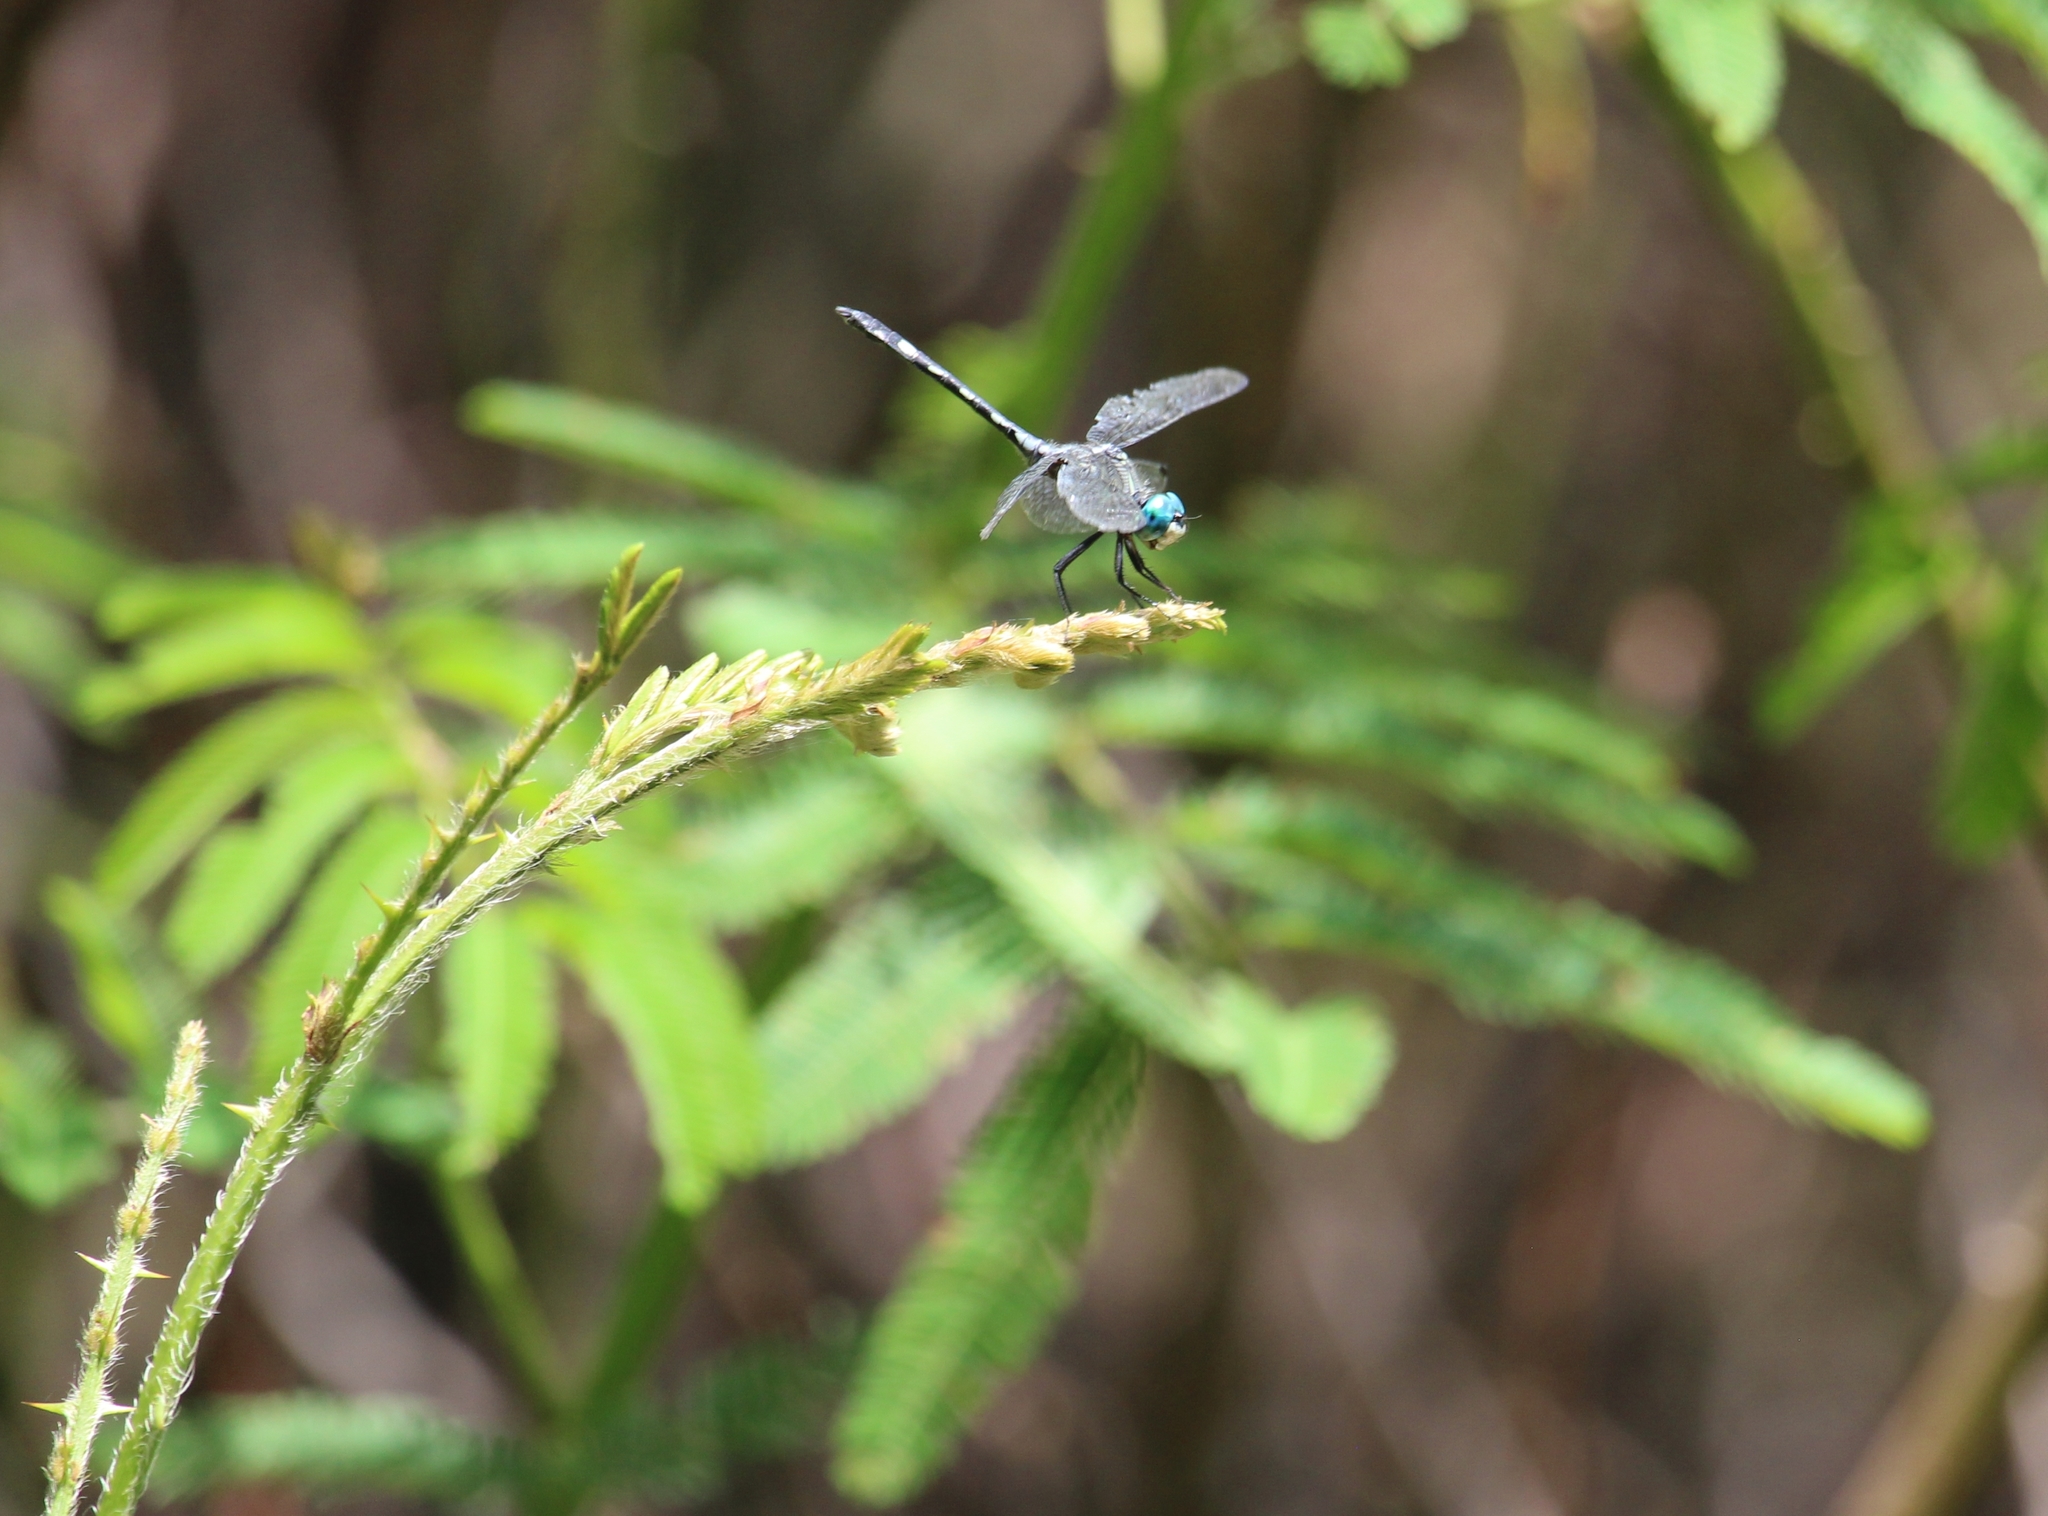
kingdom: Animalia
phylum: Arthropoda
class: Insecta
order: Odonata
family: Libellulidae
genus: Micrathyria
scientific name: Micrathyria hagenii
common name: Thornbush dasher
